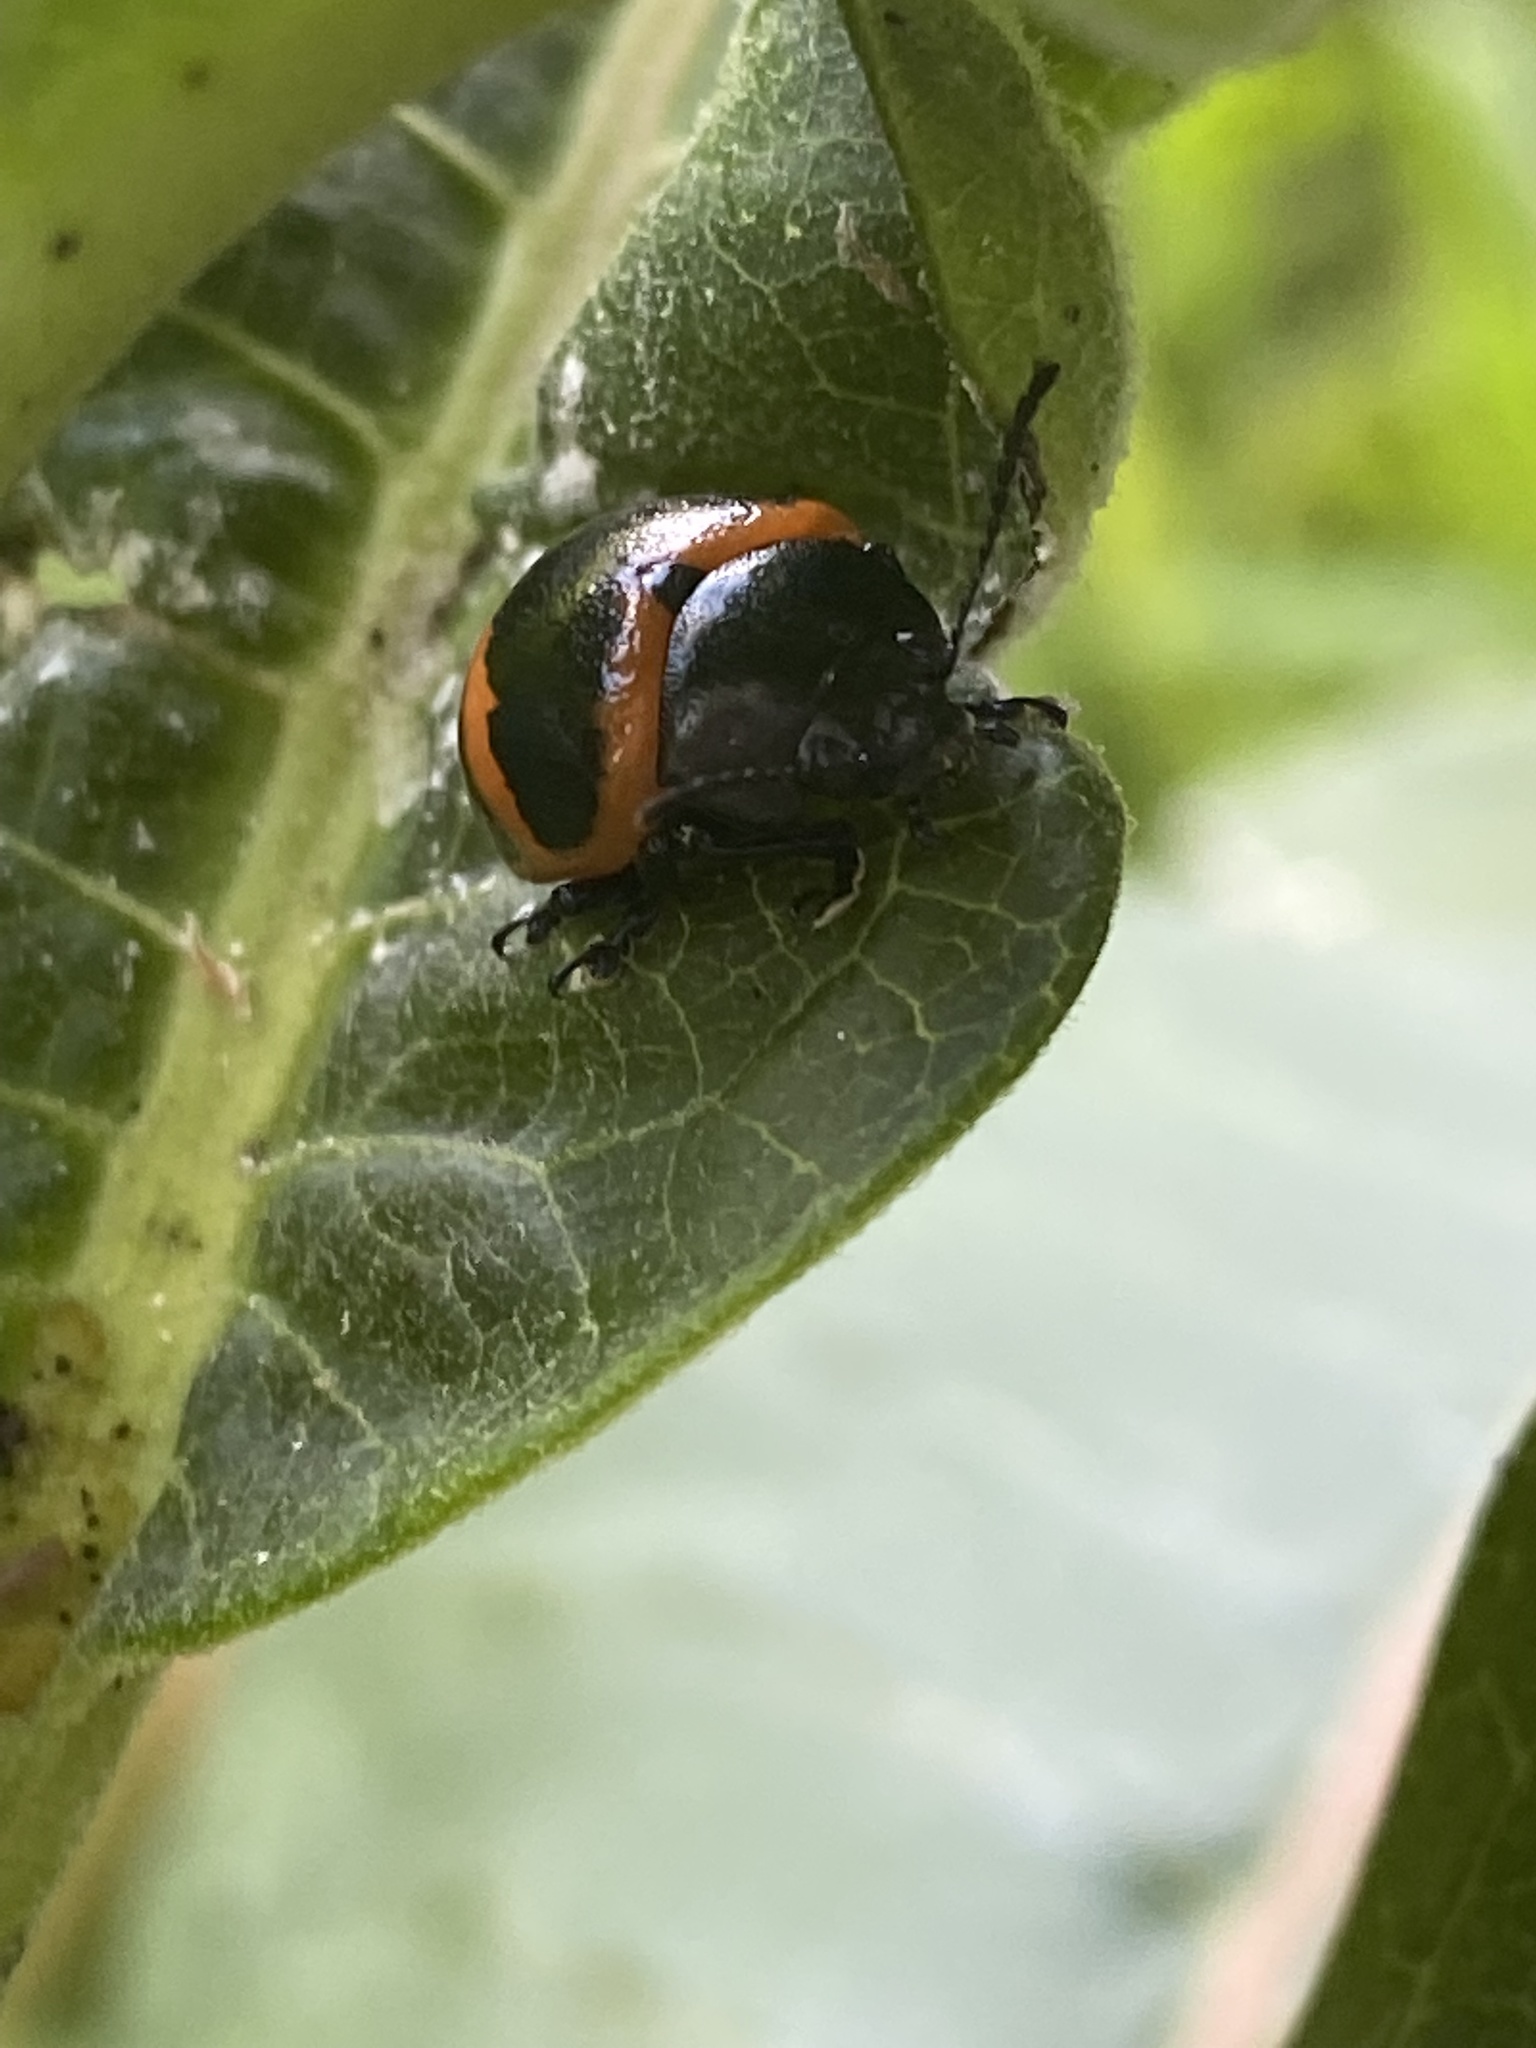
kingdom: Animalia
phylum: Arthropoda
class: Insecta
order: Coleoptera
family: Chrysomelidae
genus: Labidomera
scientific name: Labidomera clivicollis
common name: Swamp milkweed leaf beetle
